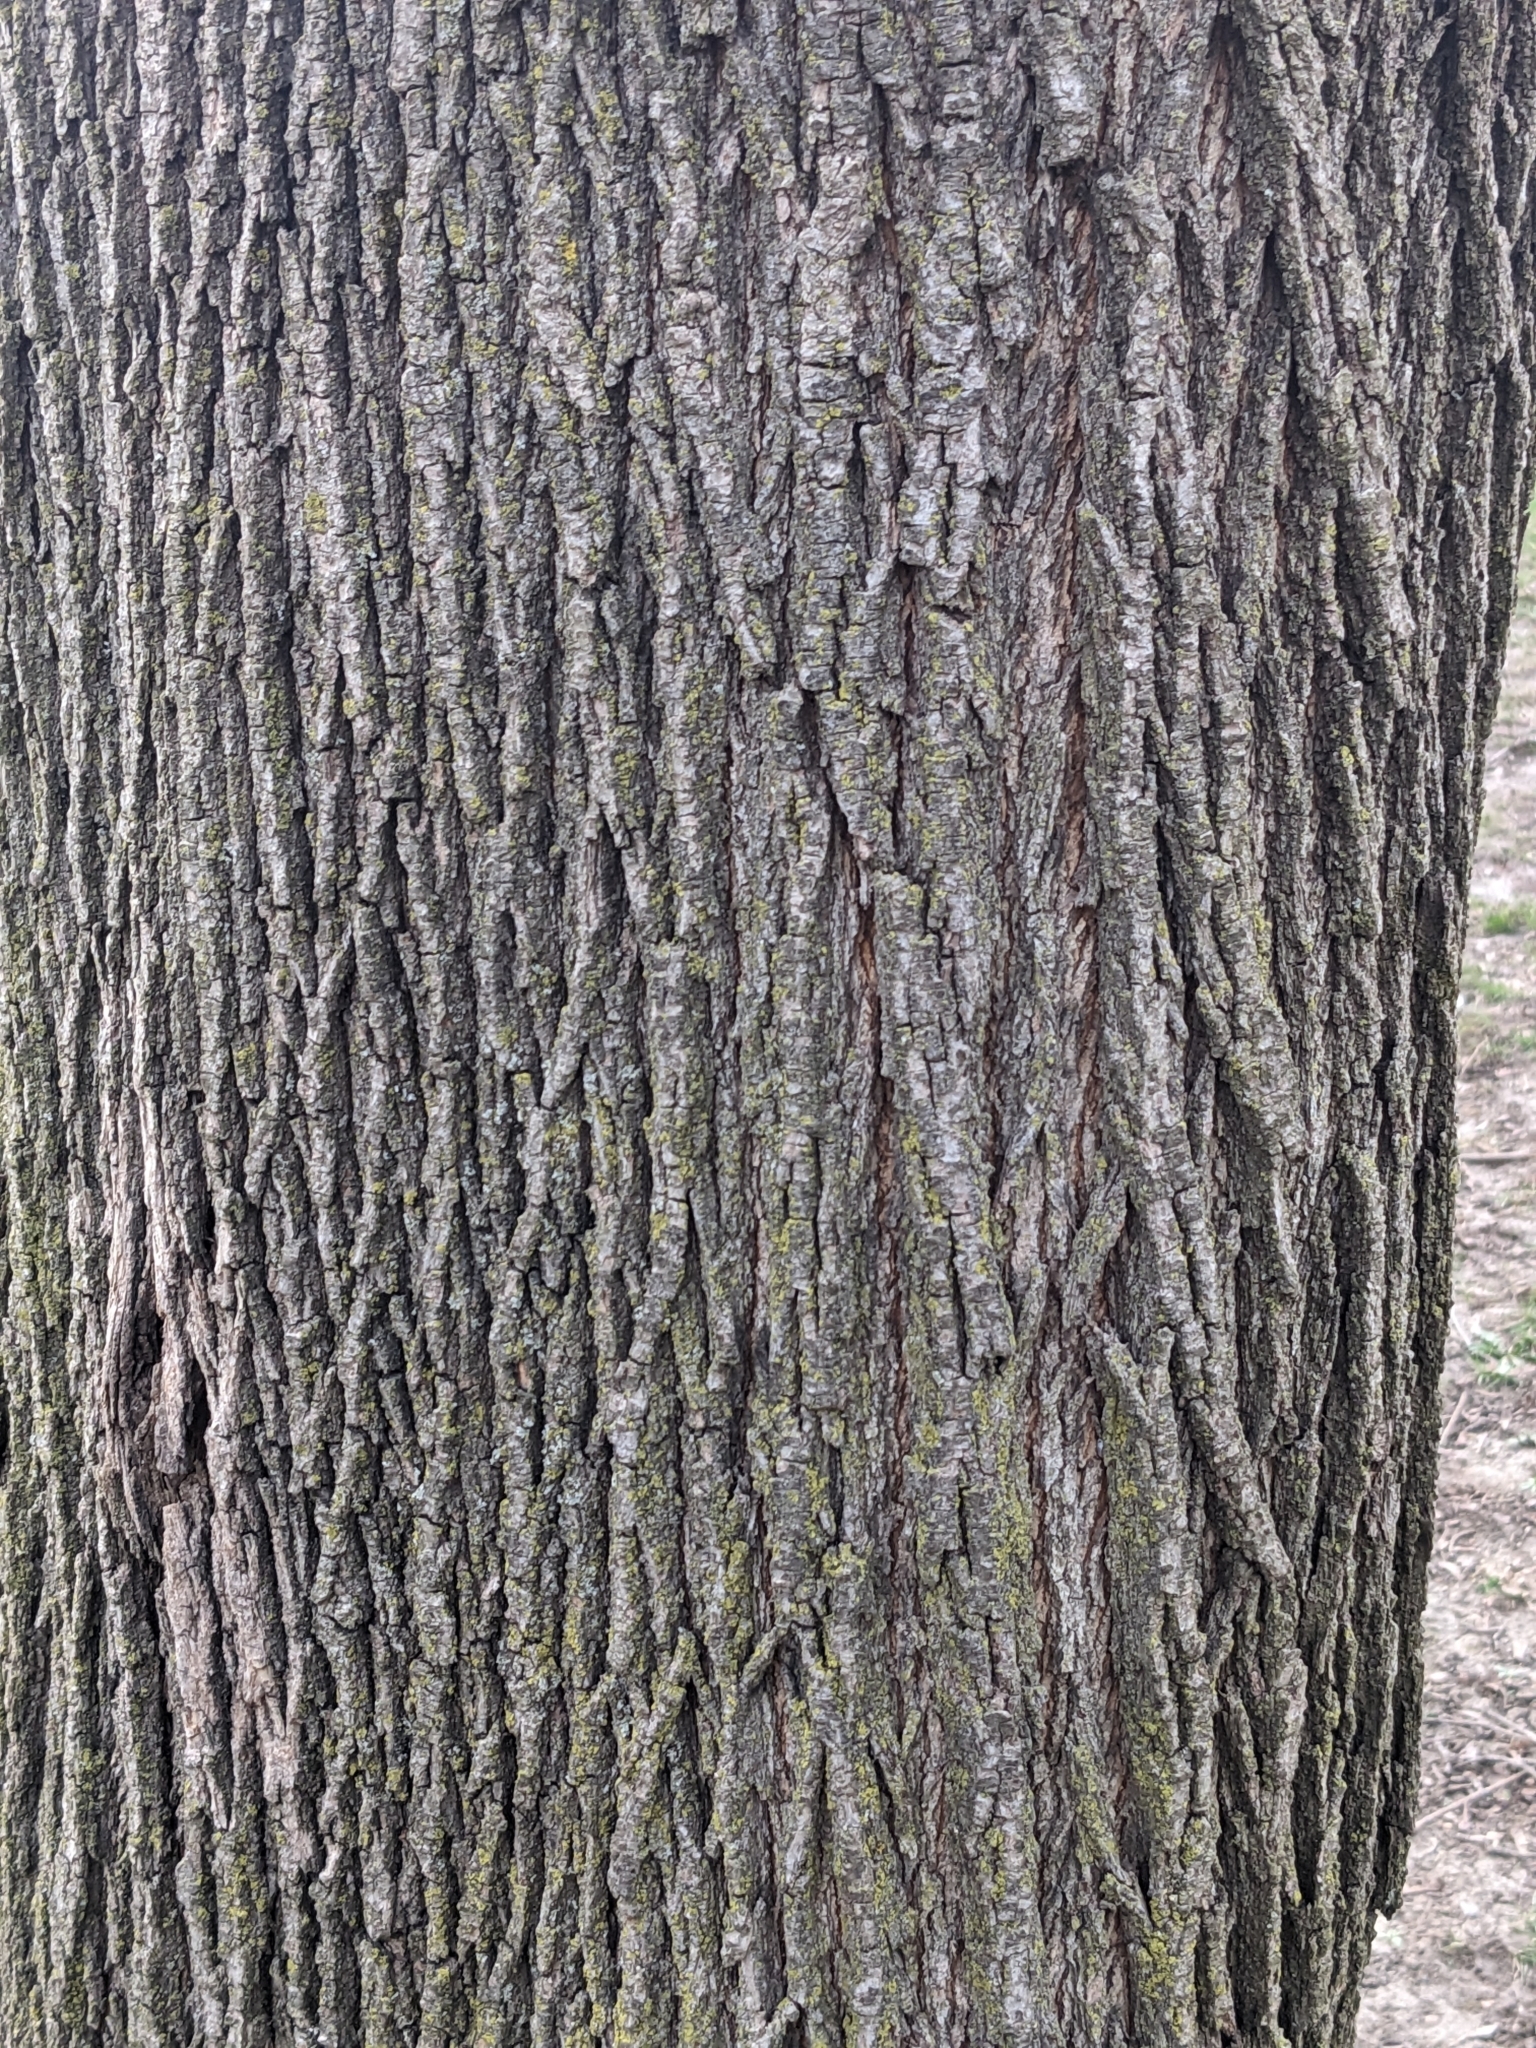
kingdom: Plantae
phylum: Tracheophyta
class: Magnoliopsida
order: Sapindales
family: Sapindaceae
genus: Acer
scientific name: Acer platanoides
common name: Norway maple
